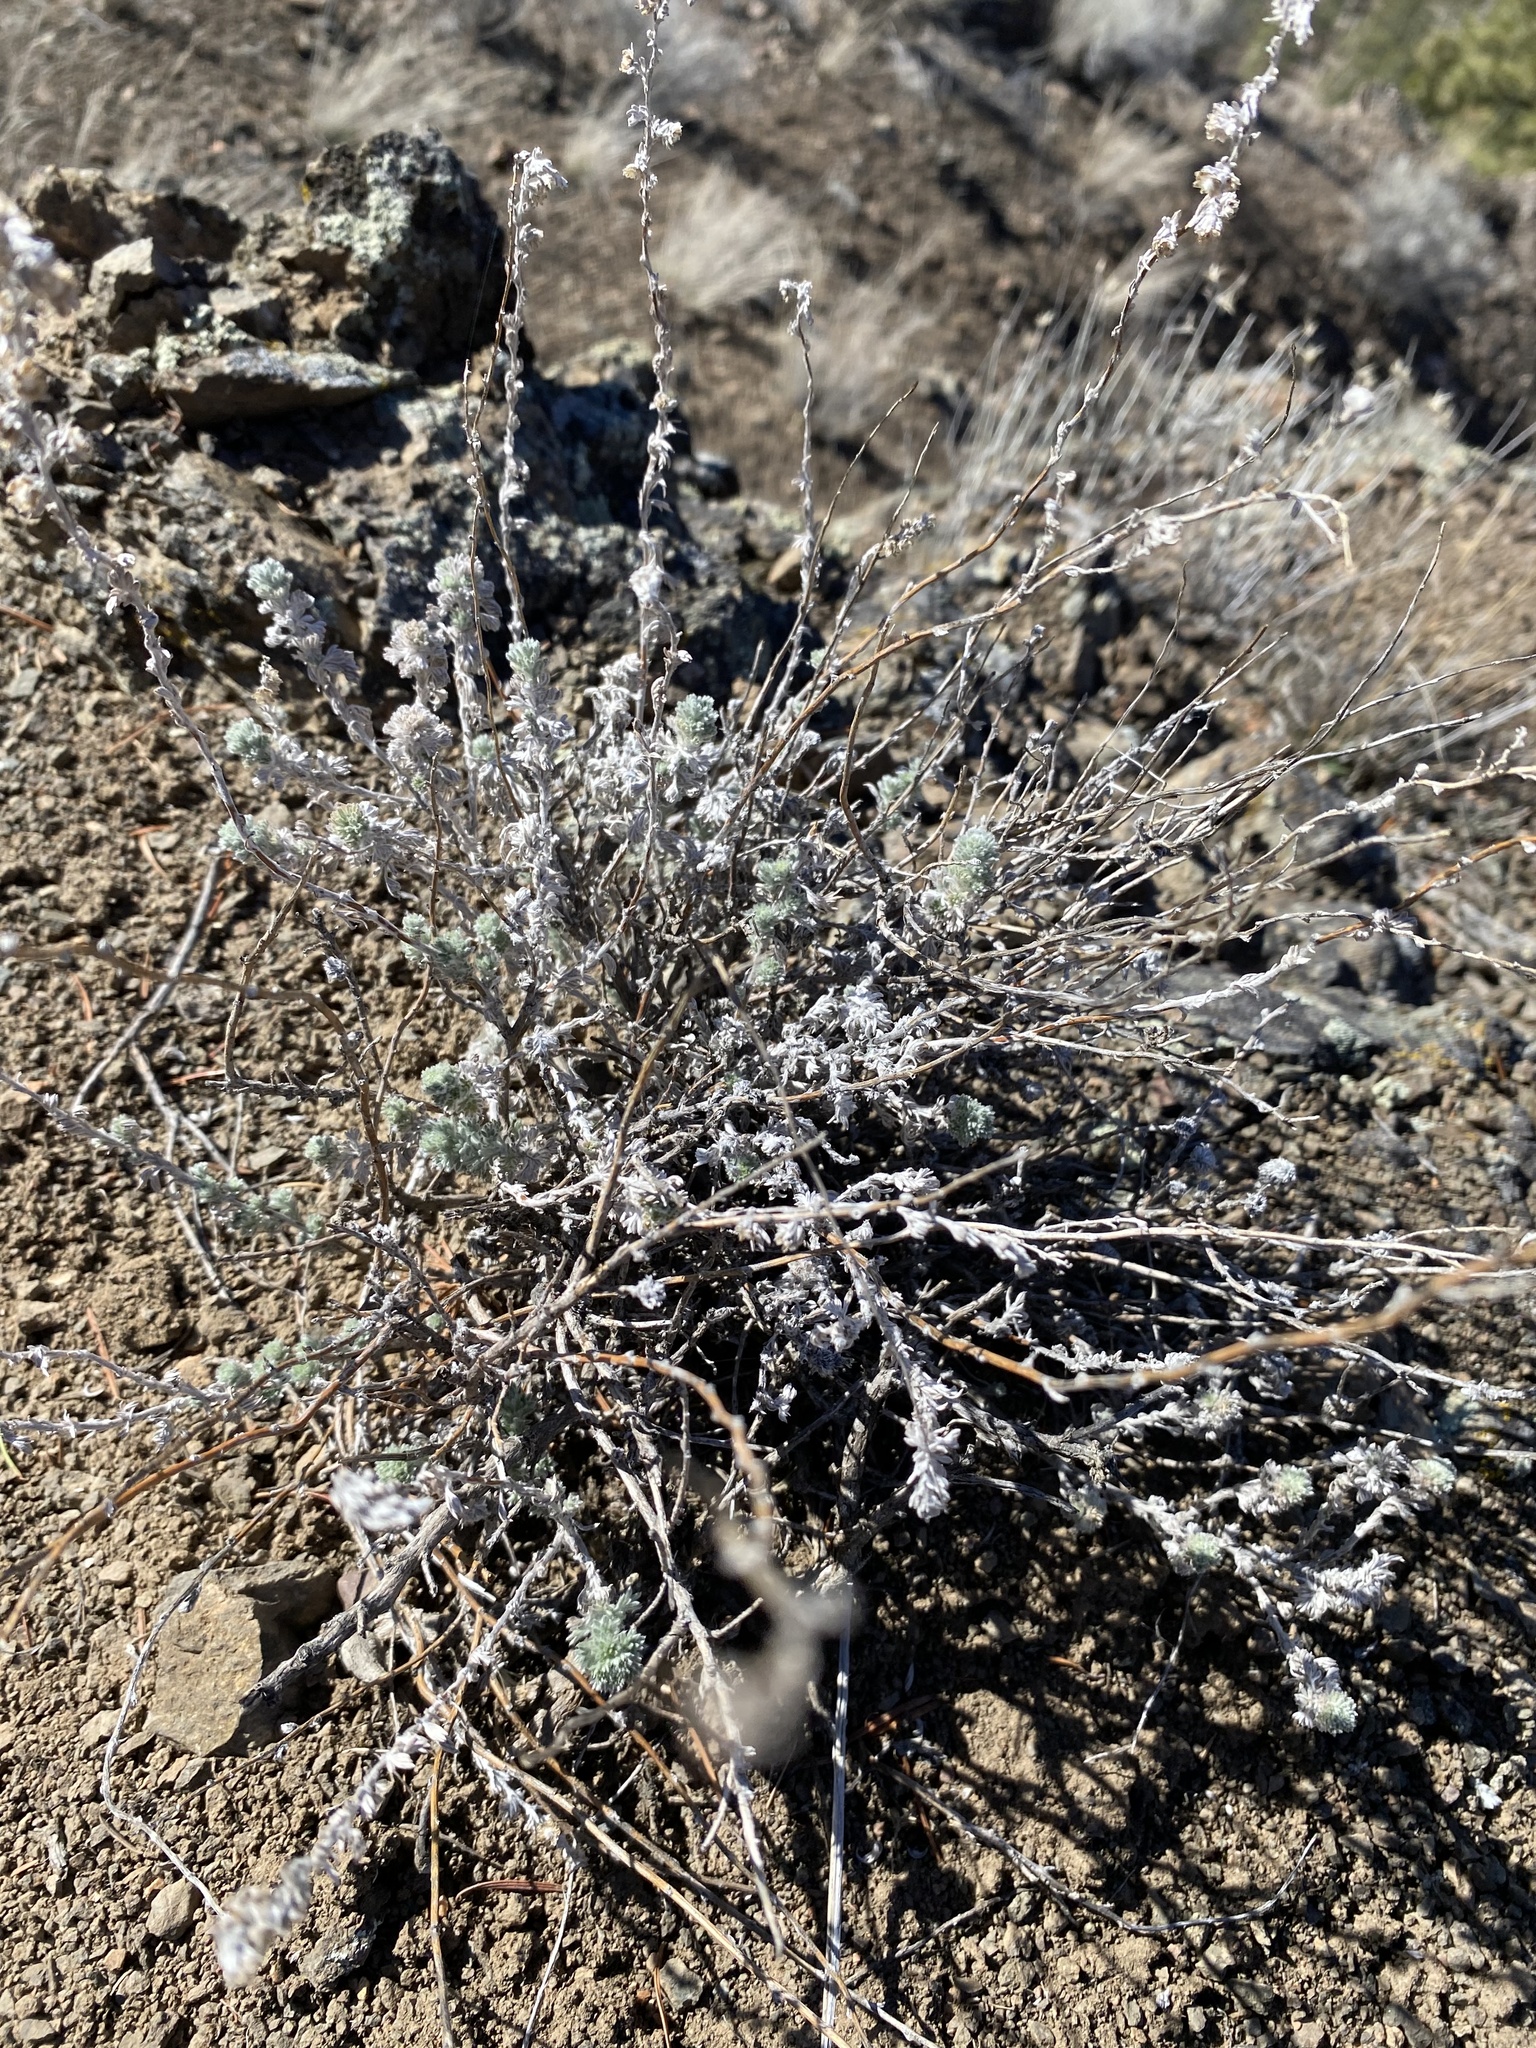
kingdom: Plantae
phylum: Tracheophyta
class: Magnoliopsida
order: Asterales
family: Asteraceae
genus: Artemisia
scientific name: Artemisia frigida
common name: Prairie sagewort
